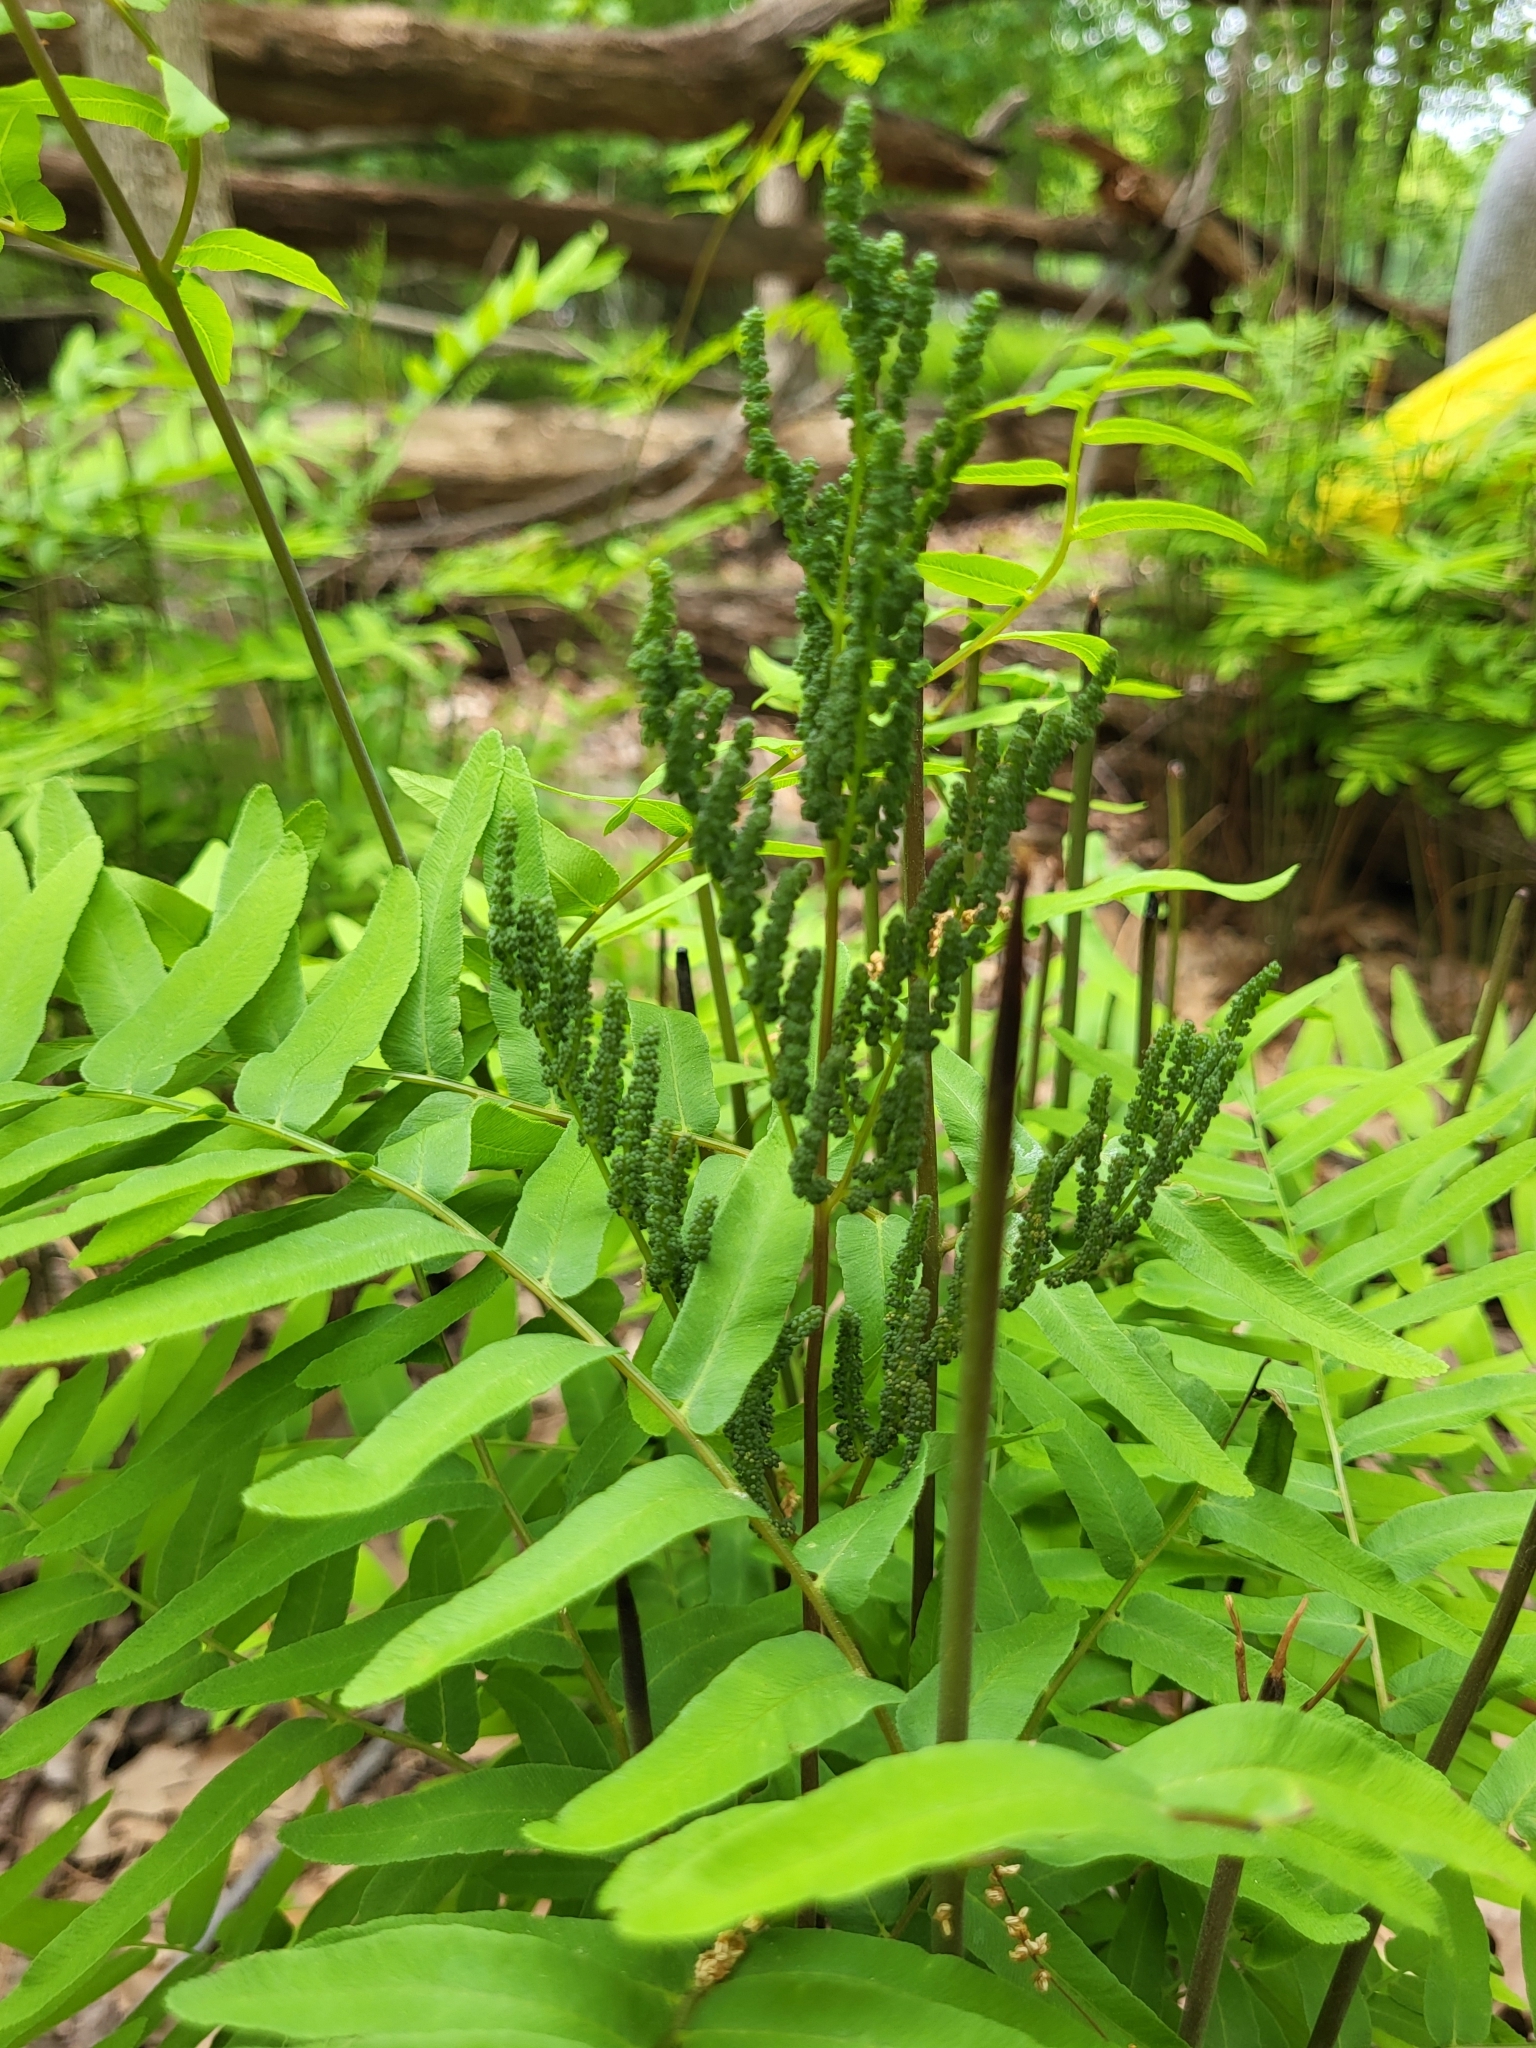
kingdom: Plantae
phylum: Tracheophyta
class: Polypodiopsida
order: Osmundales
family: Osmundaceae
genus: Osmunda
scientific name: Osmunda spectabilis
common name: American royal fern
